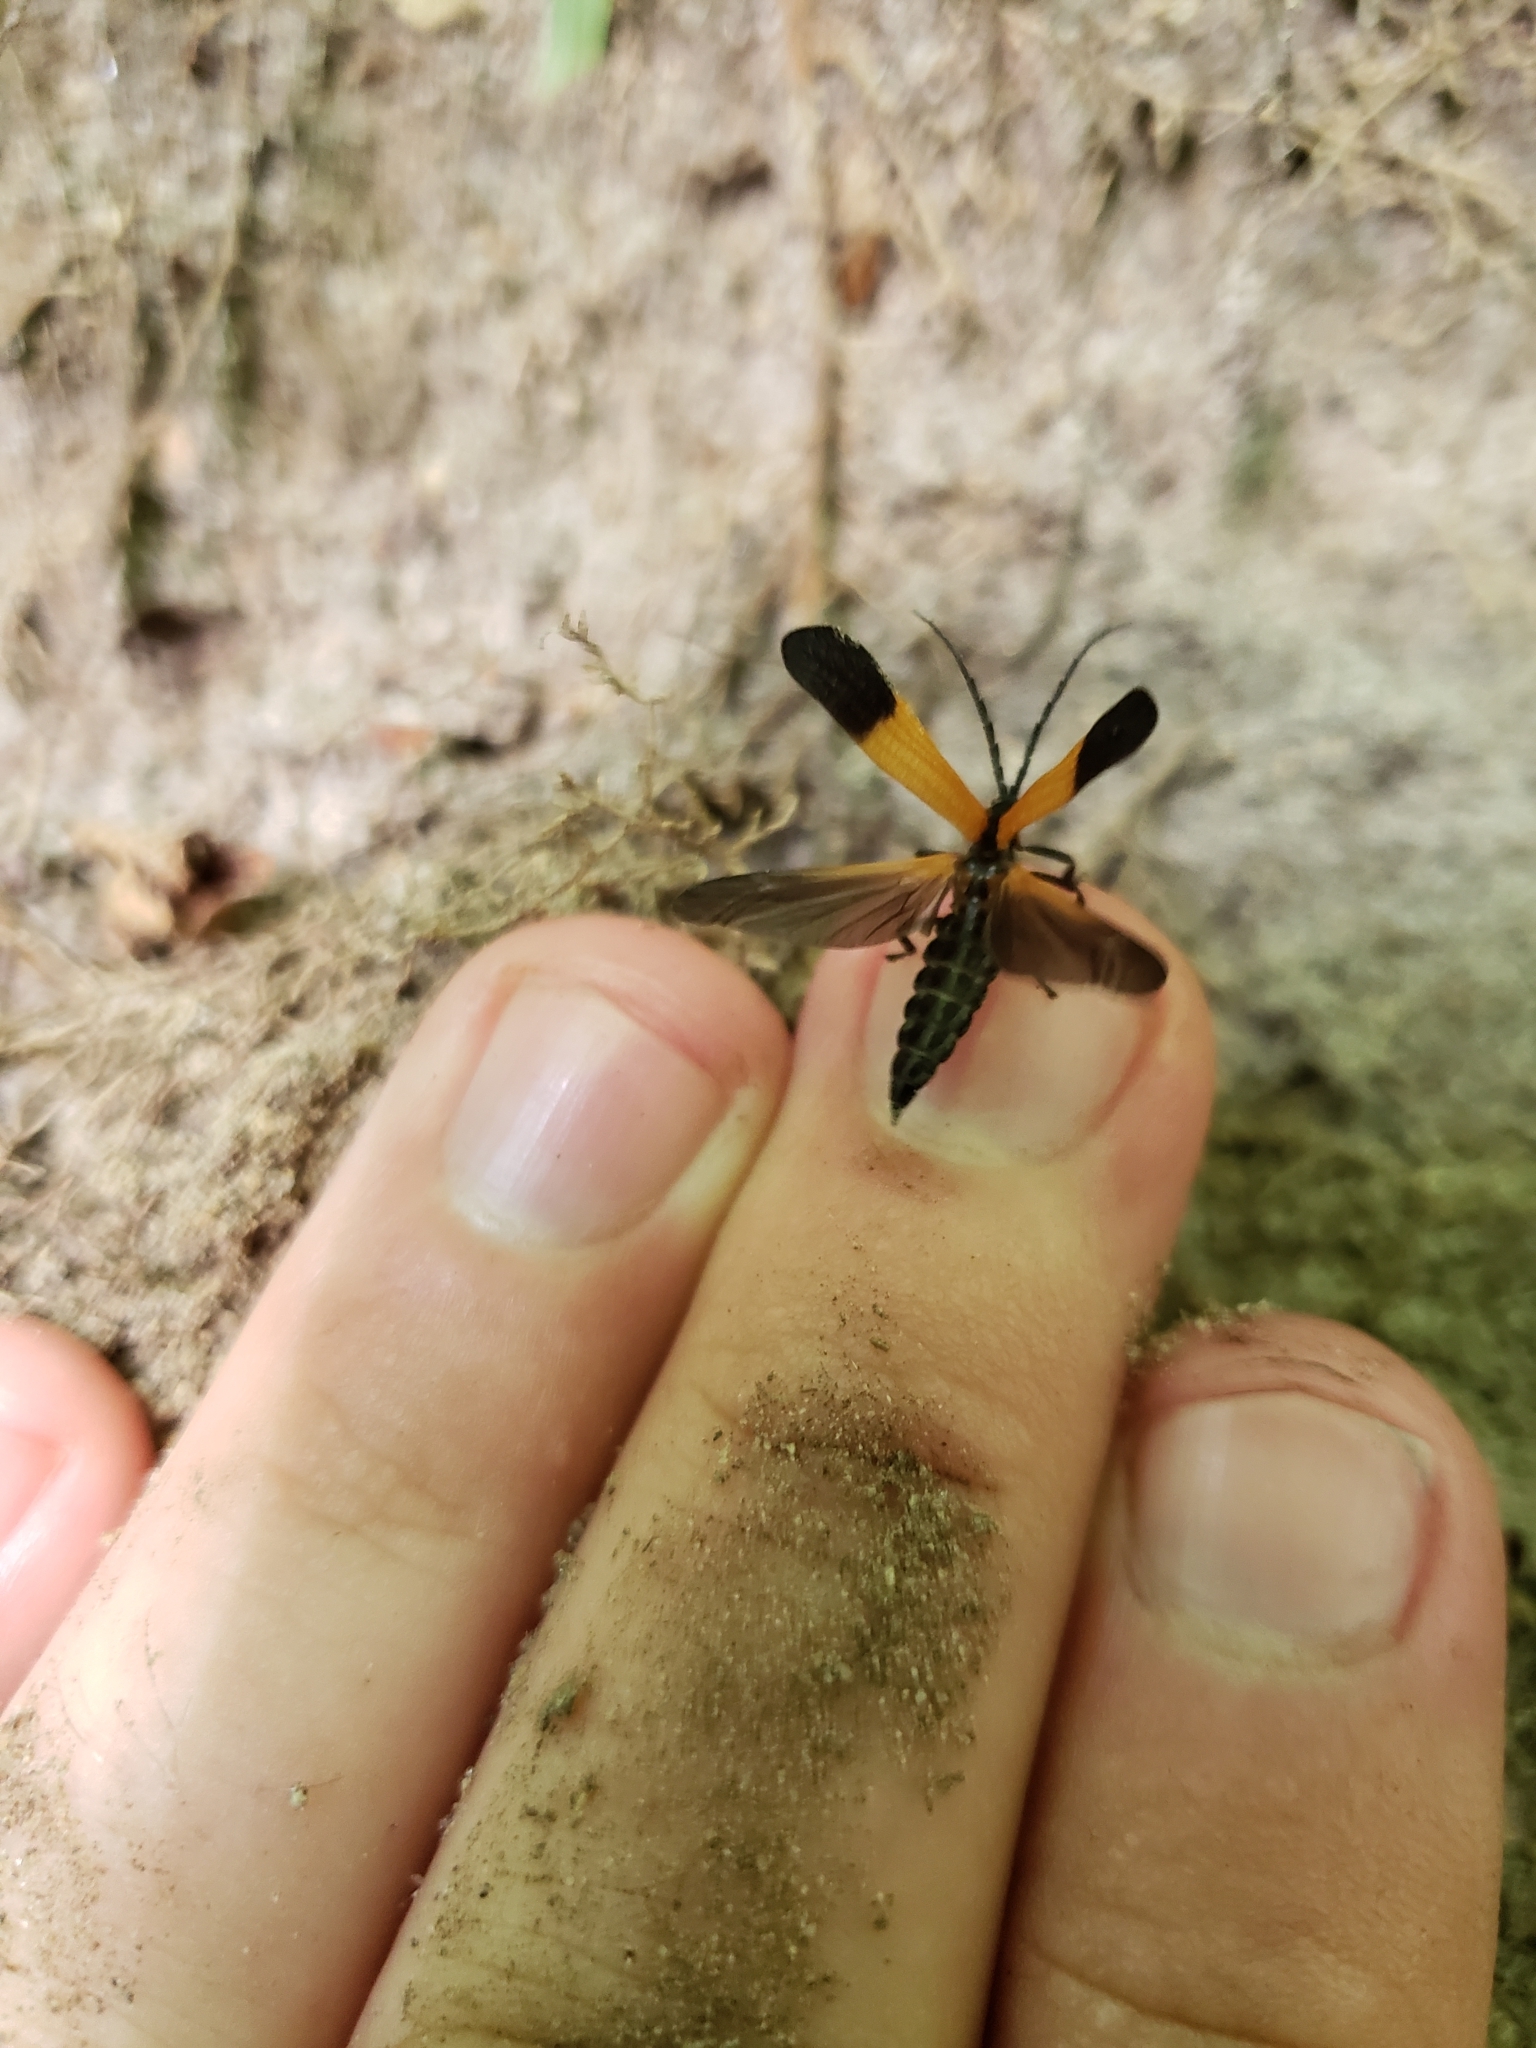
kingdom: Animalia
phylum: Arthropoda
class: Insecta
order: Coleoptera
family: Lycidae
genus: Calopteron
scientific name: Calopteron terminale
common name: End band net-winged beetle
